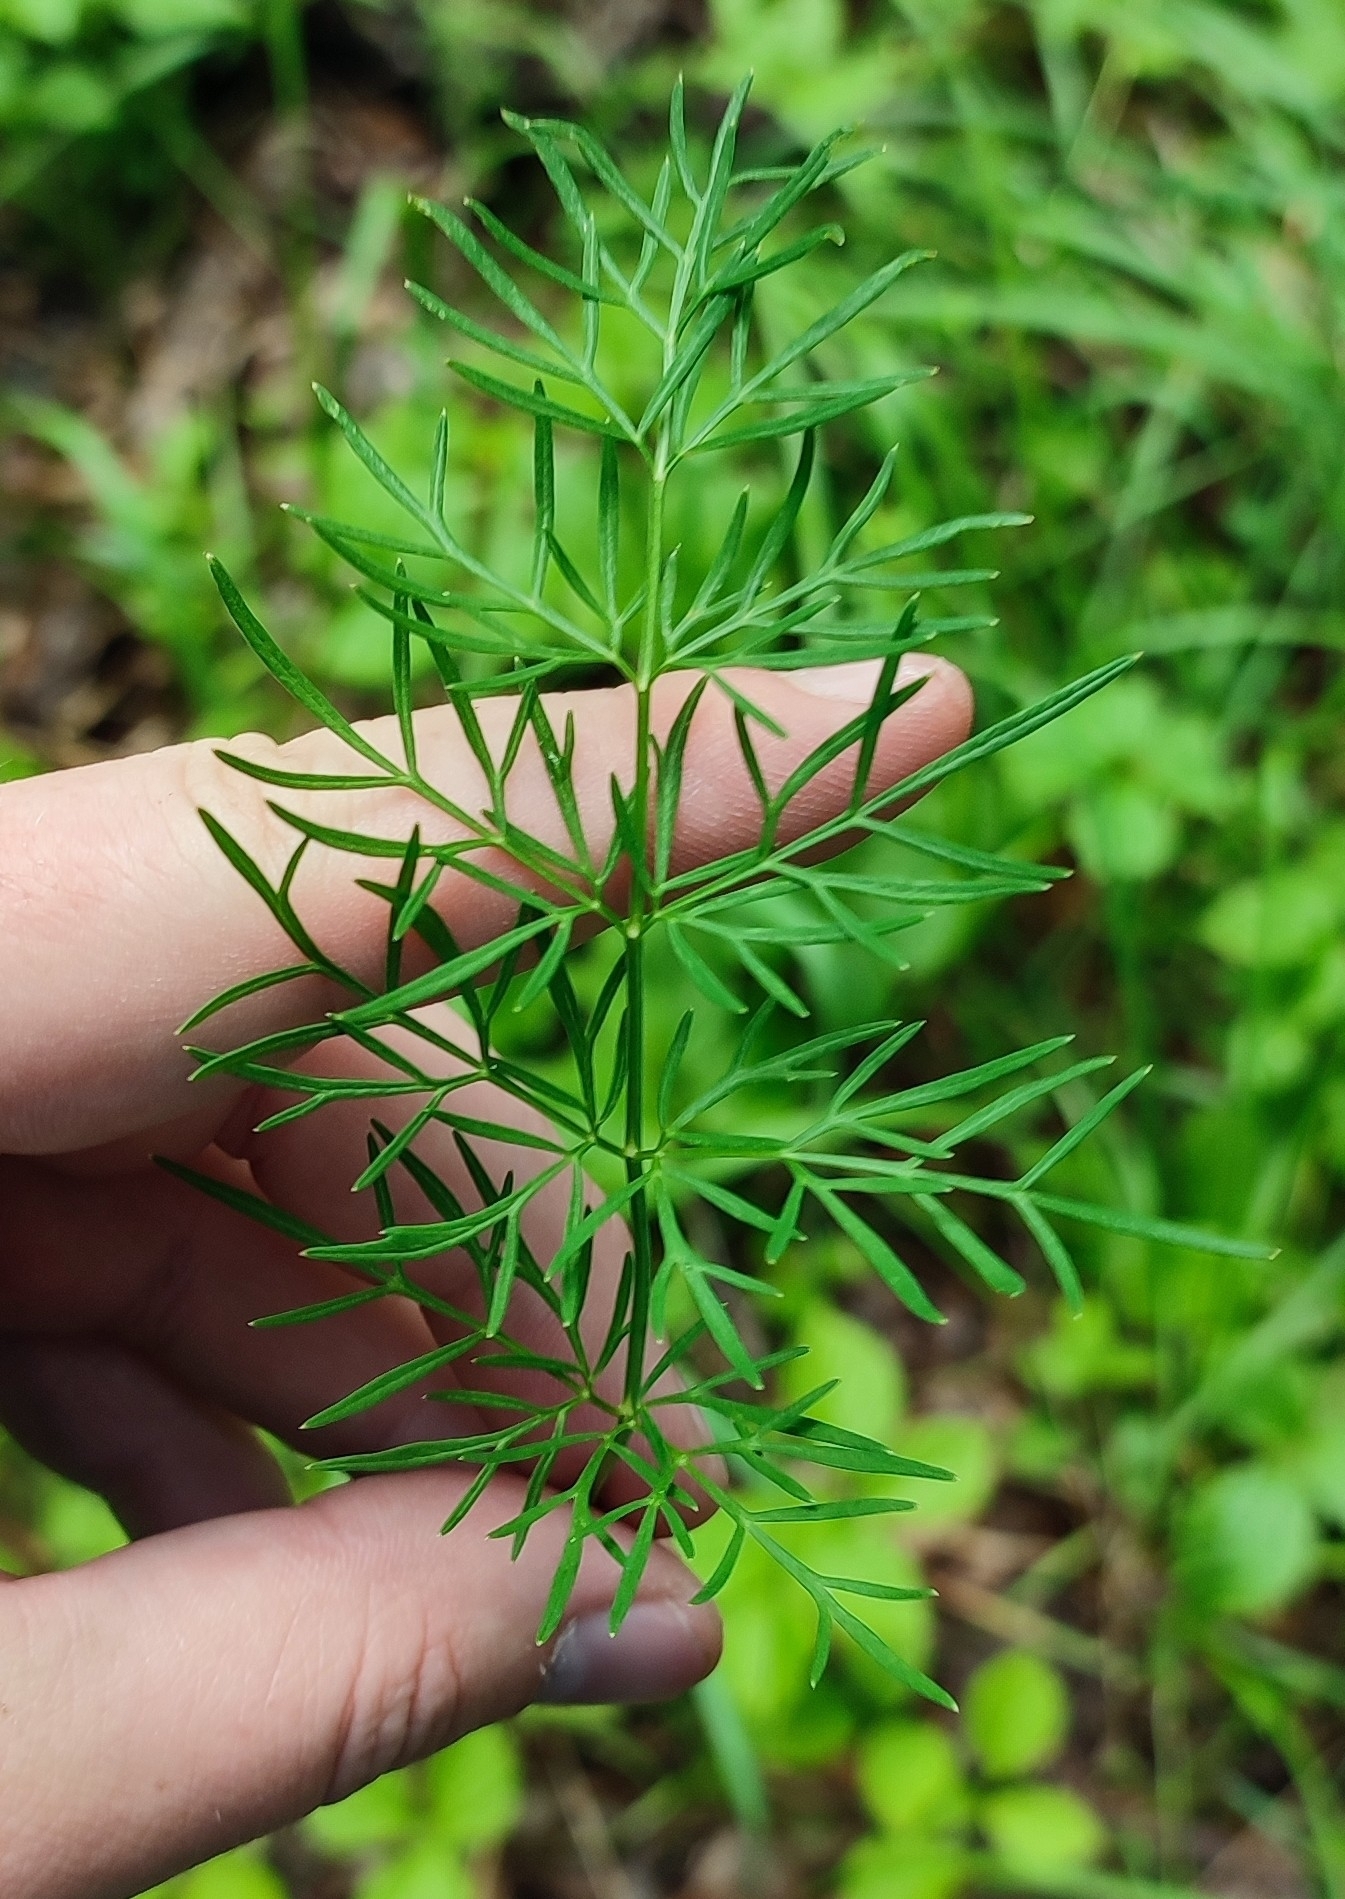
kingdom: Plantae
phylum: Tracheophyta
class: Magnoliopsida
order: Apiales
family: Apiaceae
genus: Kadenia
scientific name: Kadenia dubia
